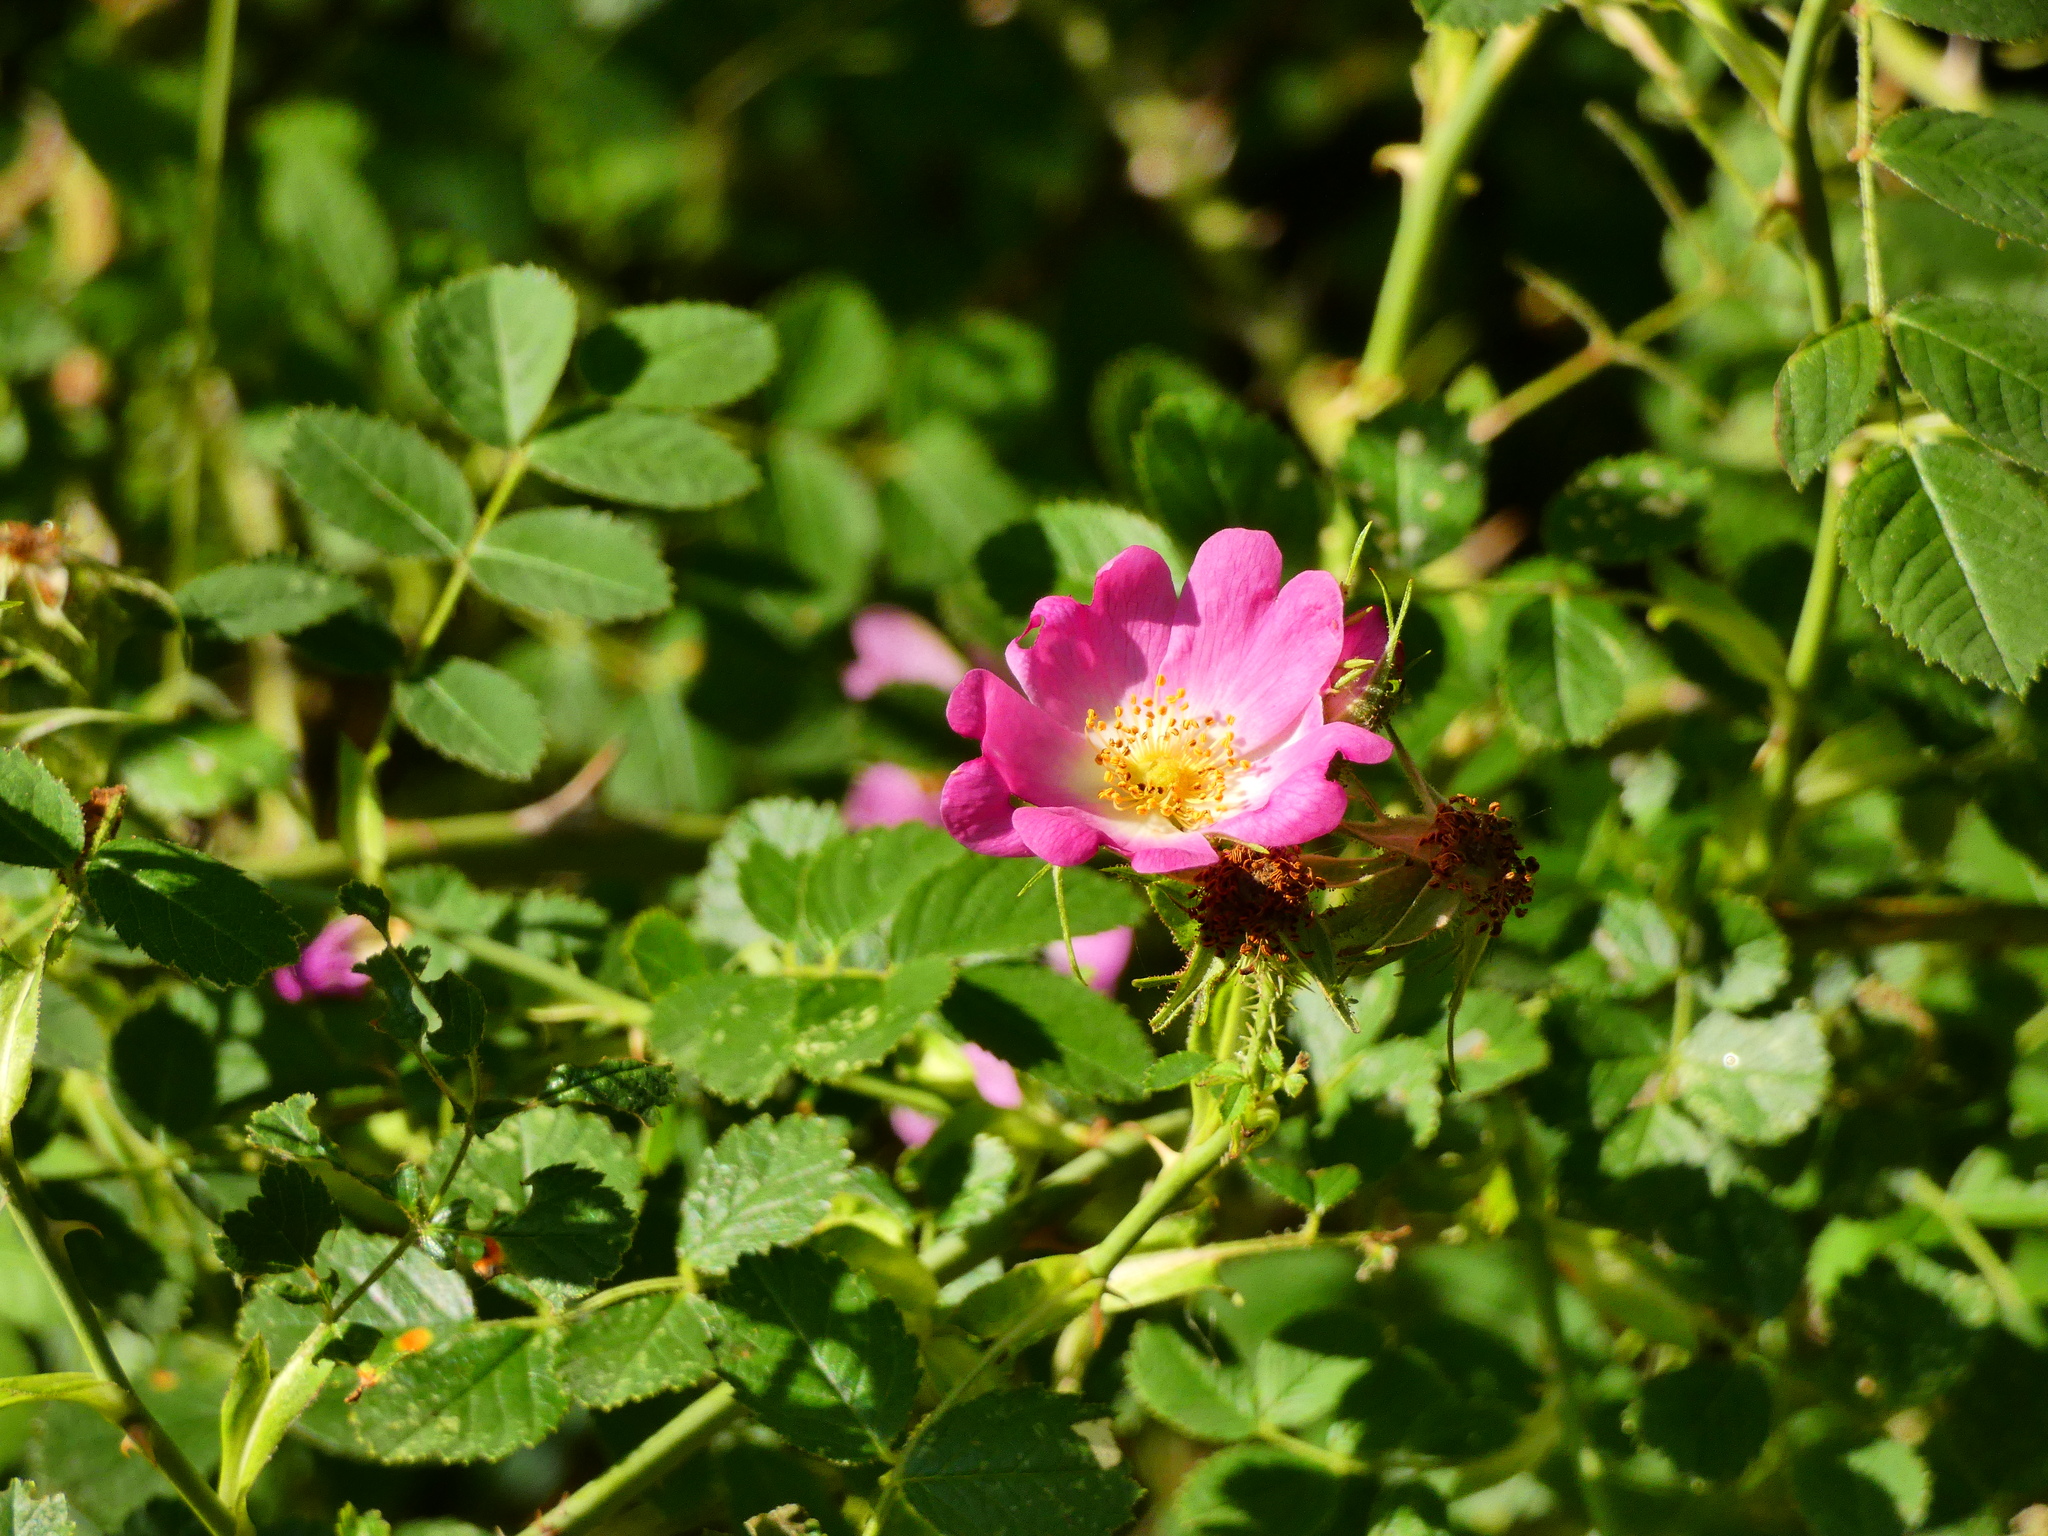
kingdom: Plantae
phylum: Tracheophyta
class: Magnoliopsida
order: Rosales
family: Rosaceae
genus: Rosa
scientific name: Rosa rubiginosa
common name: Sweet-briar
